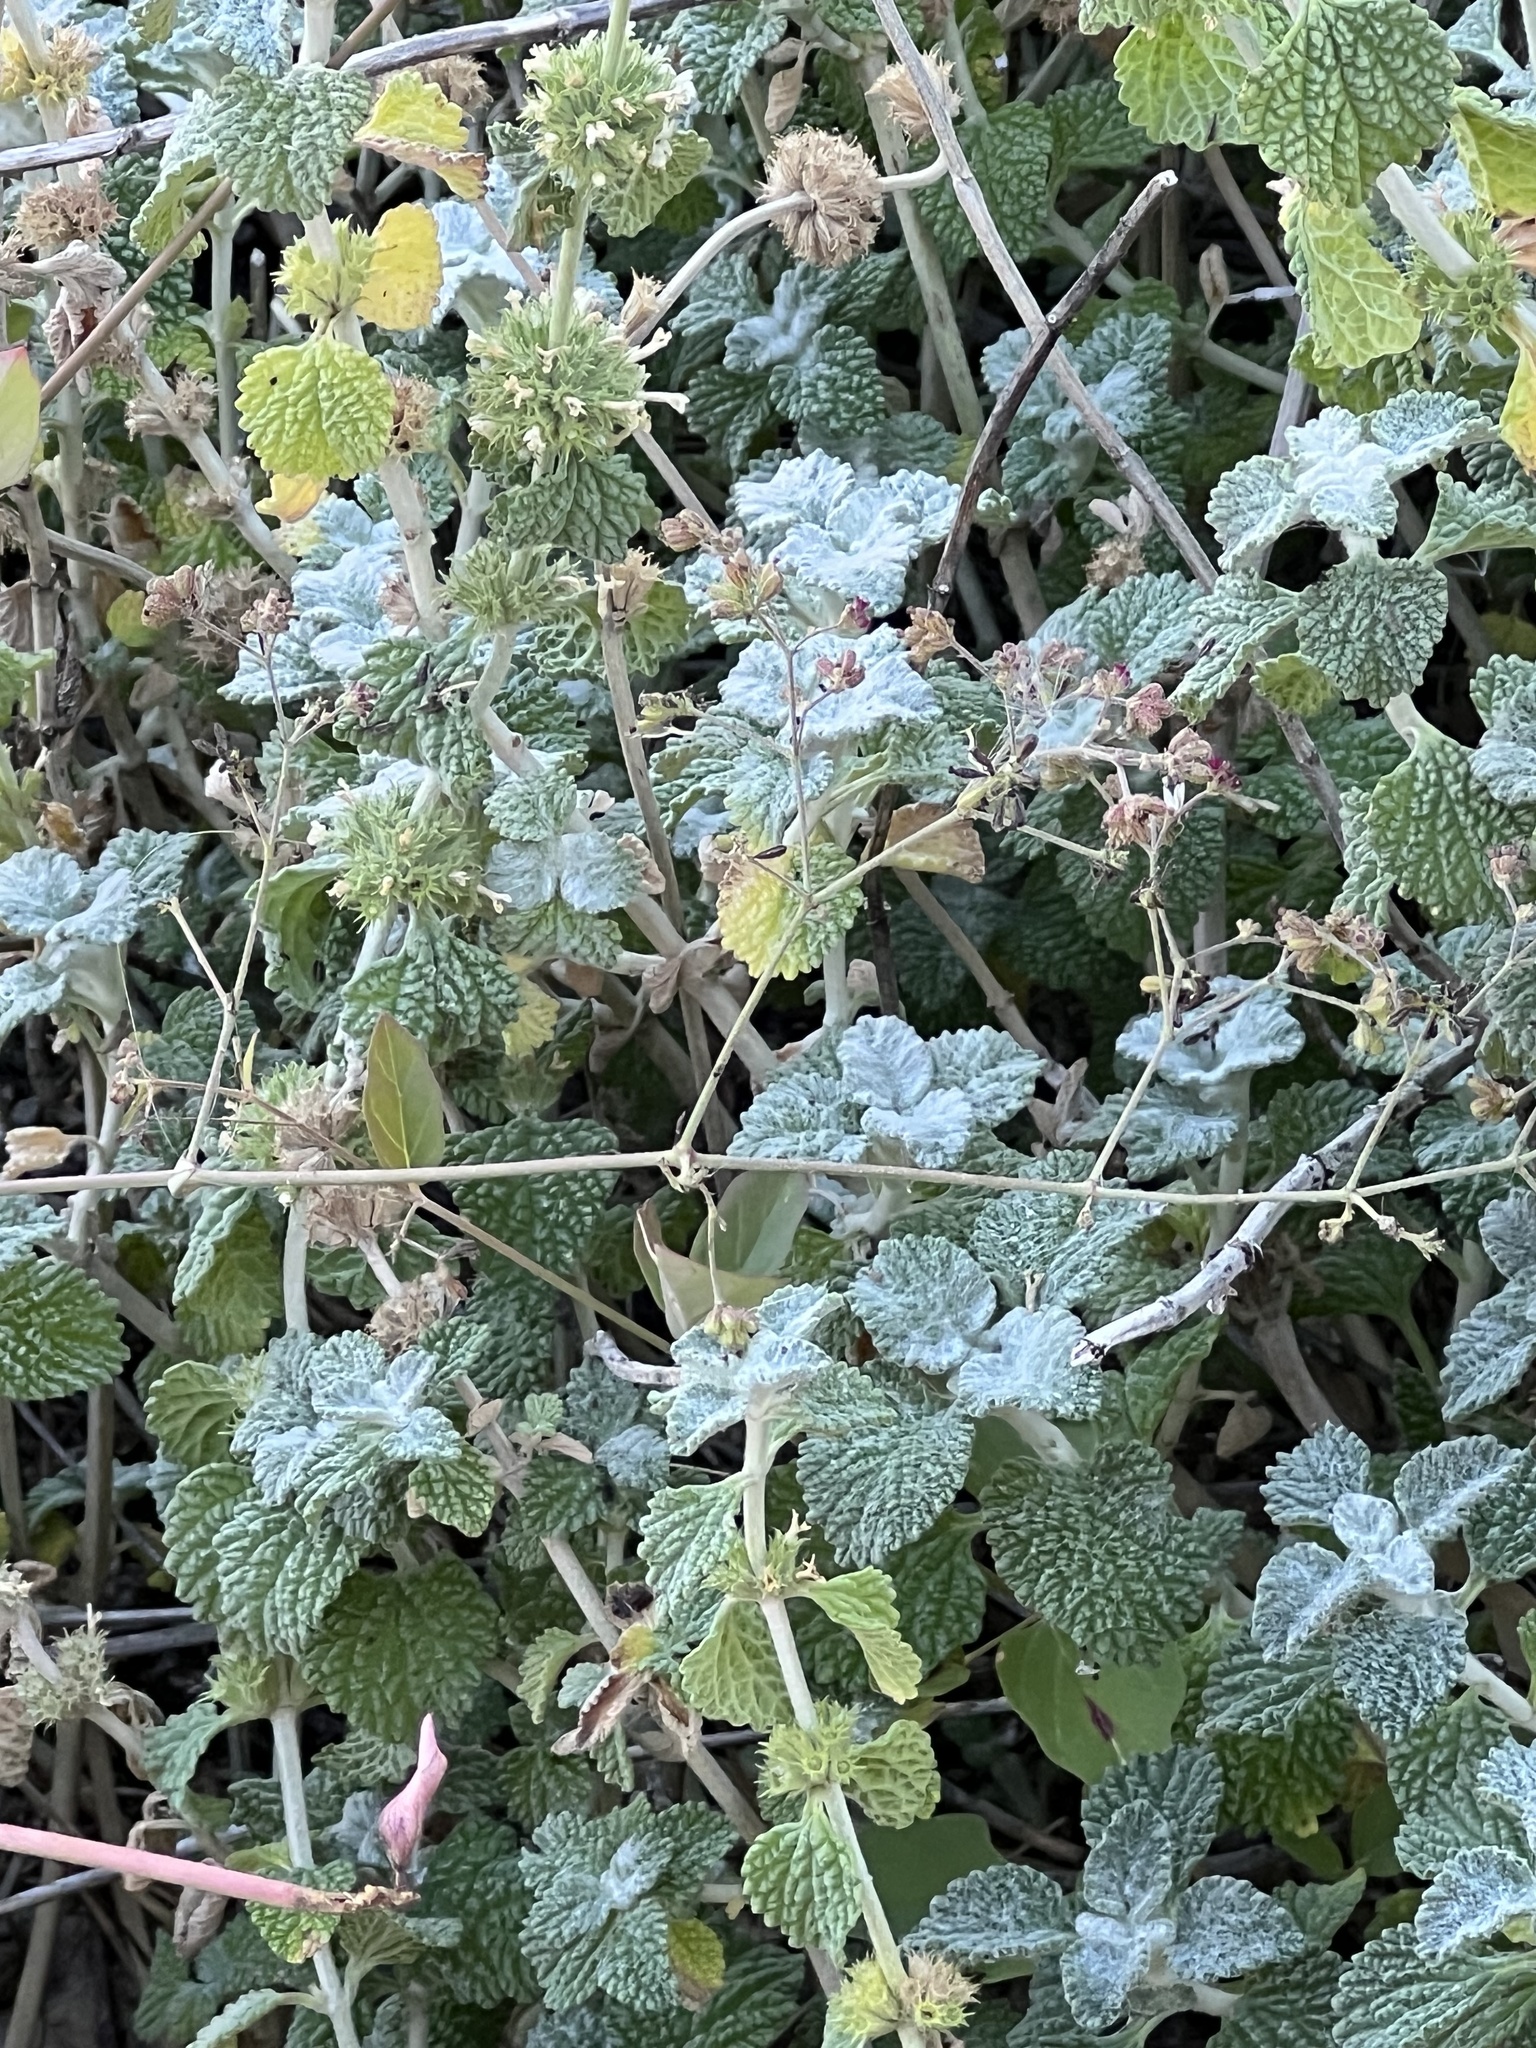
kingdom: Plantae
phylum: Tracheophyta
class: Magnoliopsida
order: Lamiales
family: Lamiaceae
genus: Marrubium
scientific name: Marrubium vulgare
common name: Horehound
